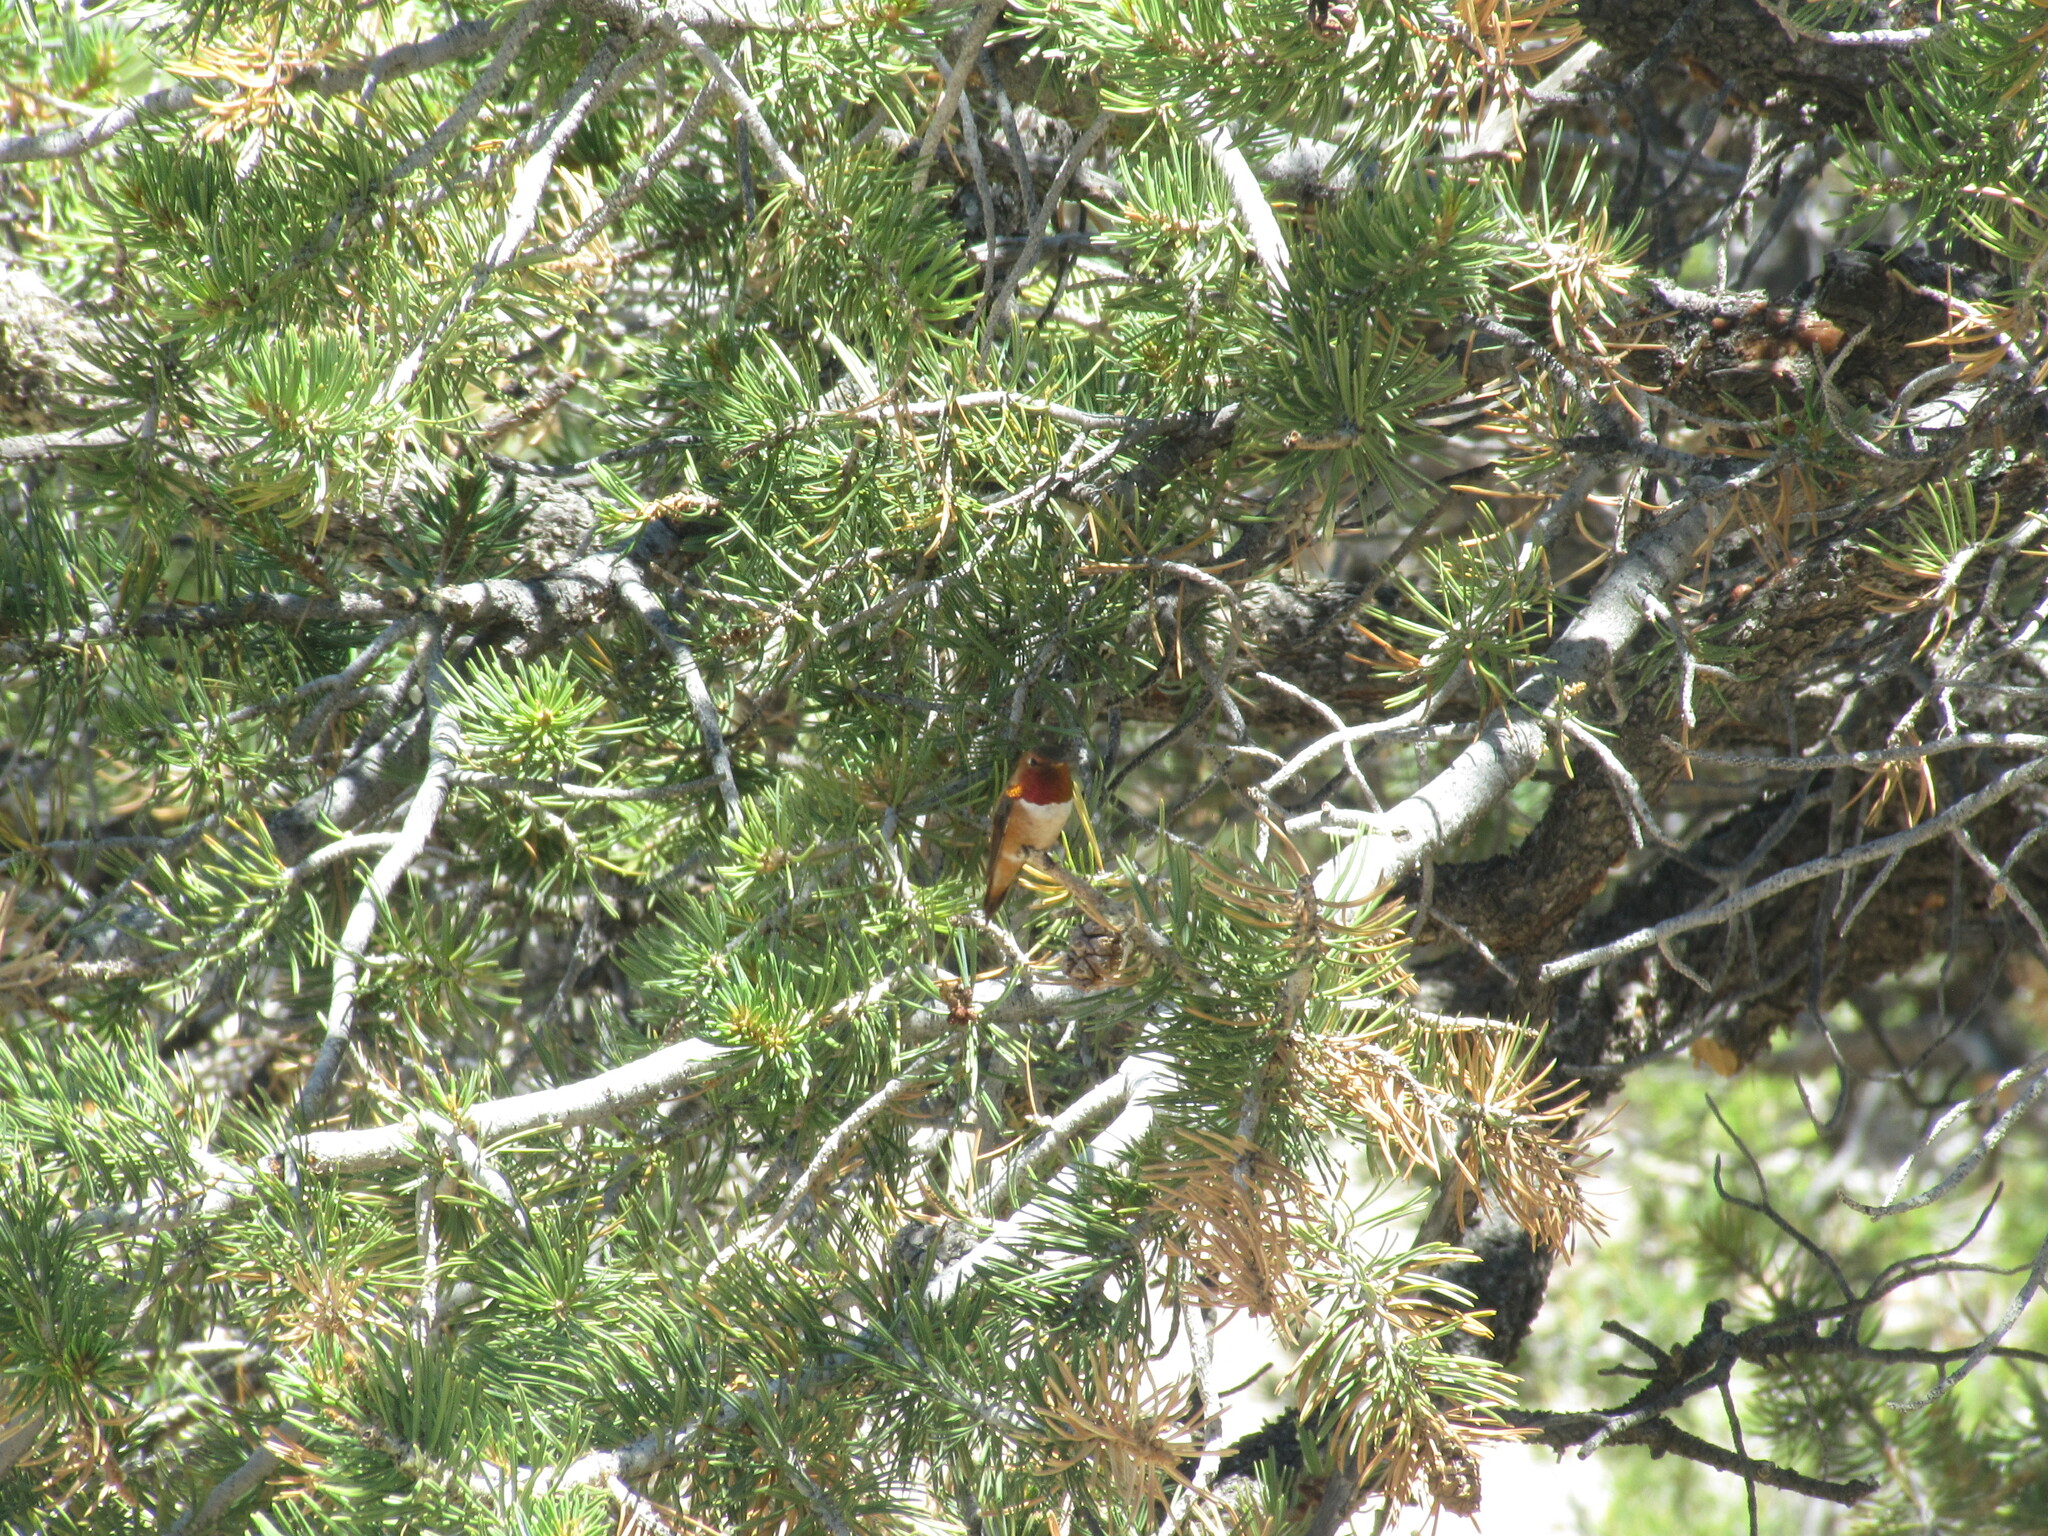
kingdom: Animalia
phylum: Chordata
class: Aves
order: Apodiformes
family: Trochilidae
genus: Selasphorus
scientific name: Selasphorus rufus
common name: Rufous hummingbird
